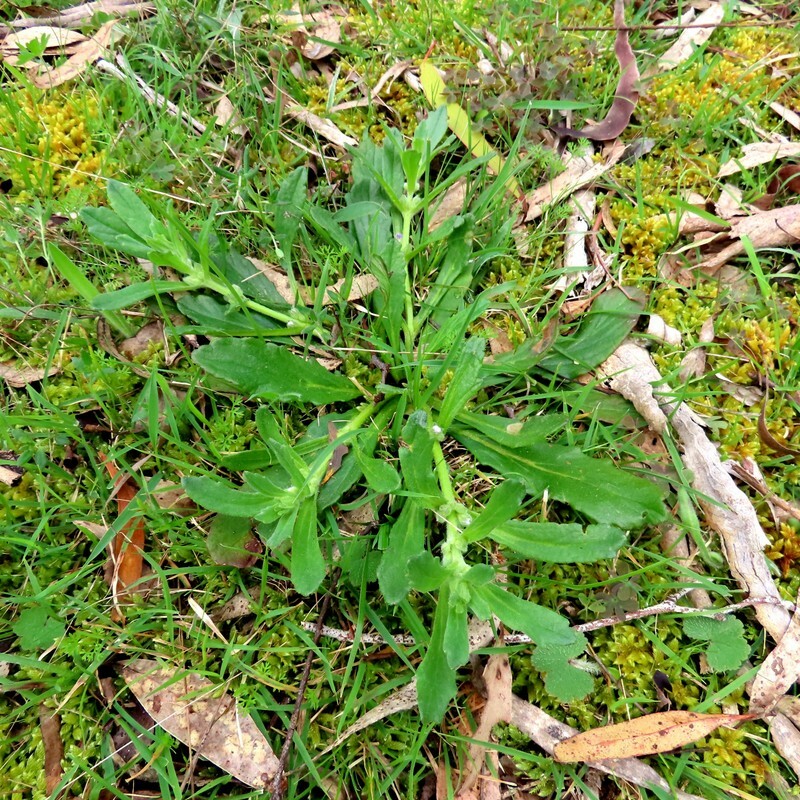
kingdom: Plantae
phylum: Tracheophyta
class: Magnoliopsida
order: Lamiales
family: Lamiaceae
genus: Ajuga
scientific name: Ajuga australis
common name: Australian bugle
